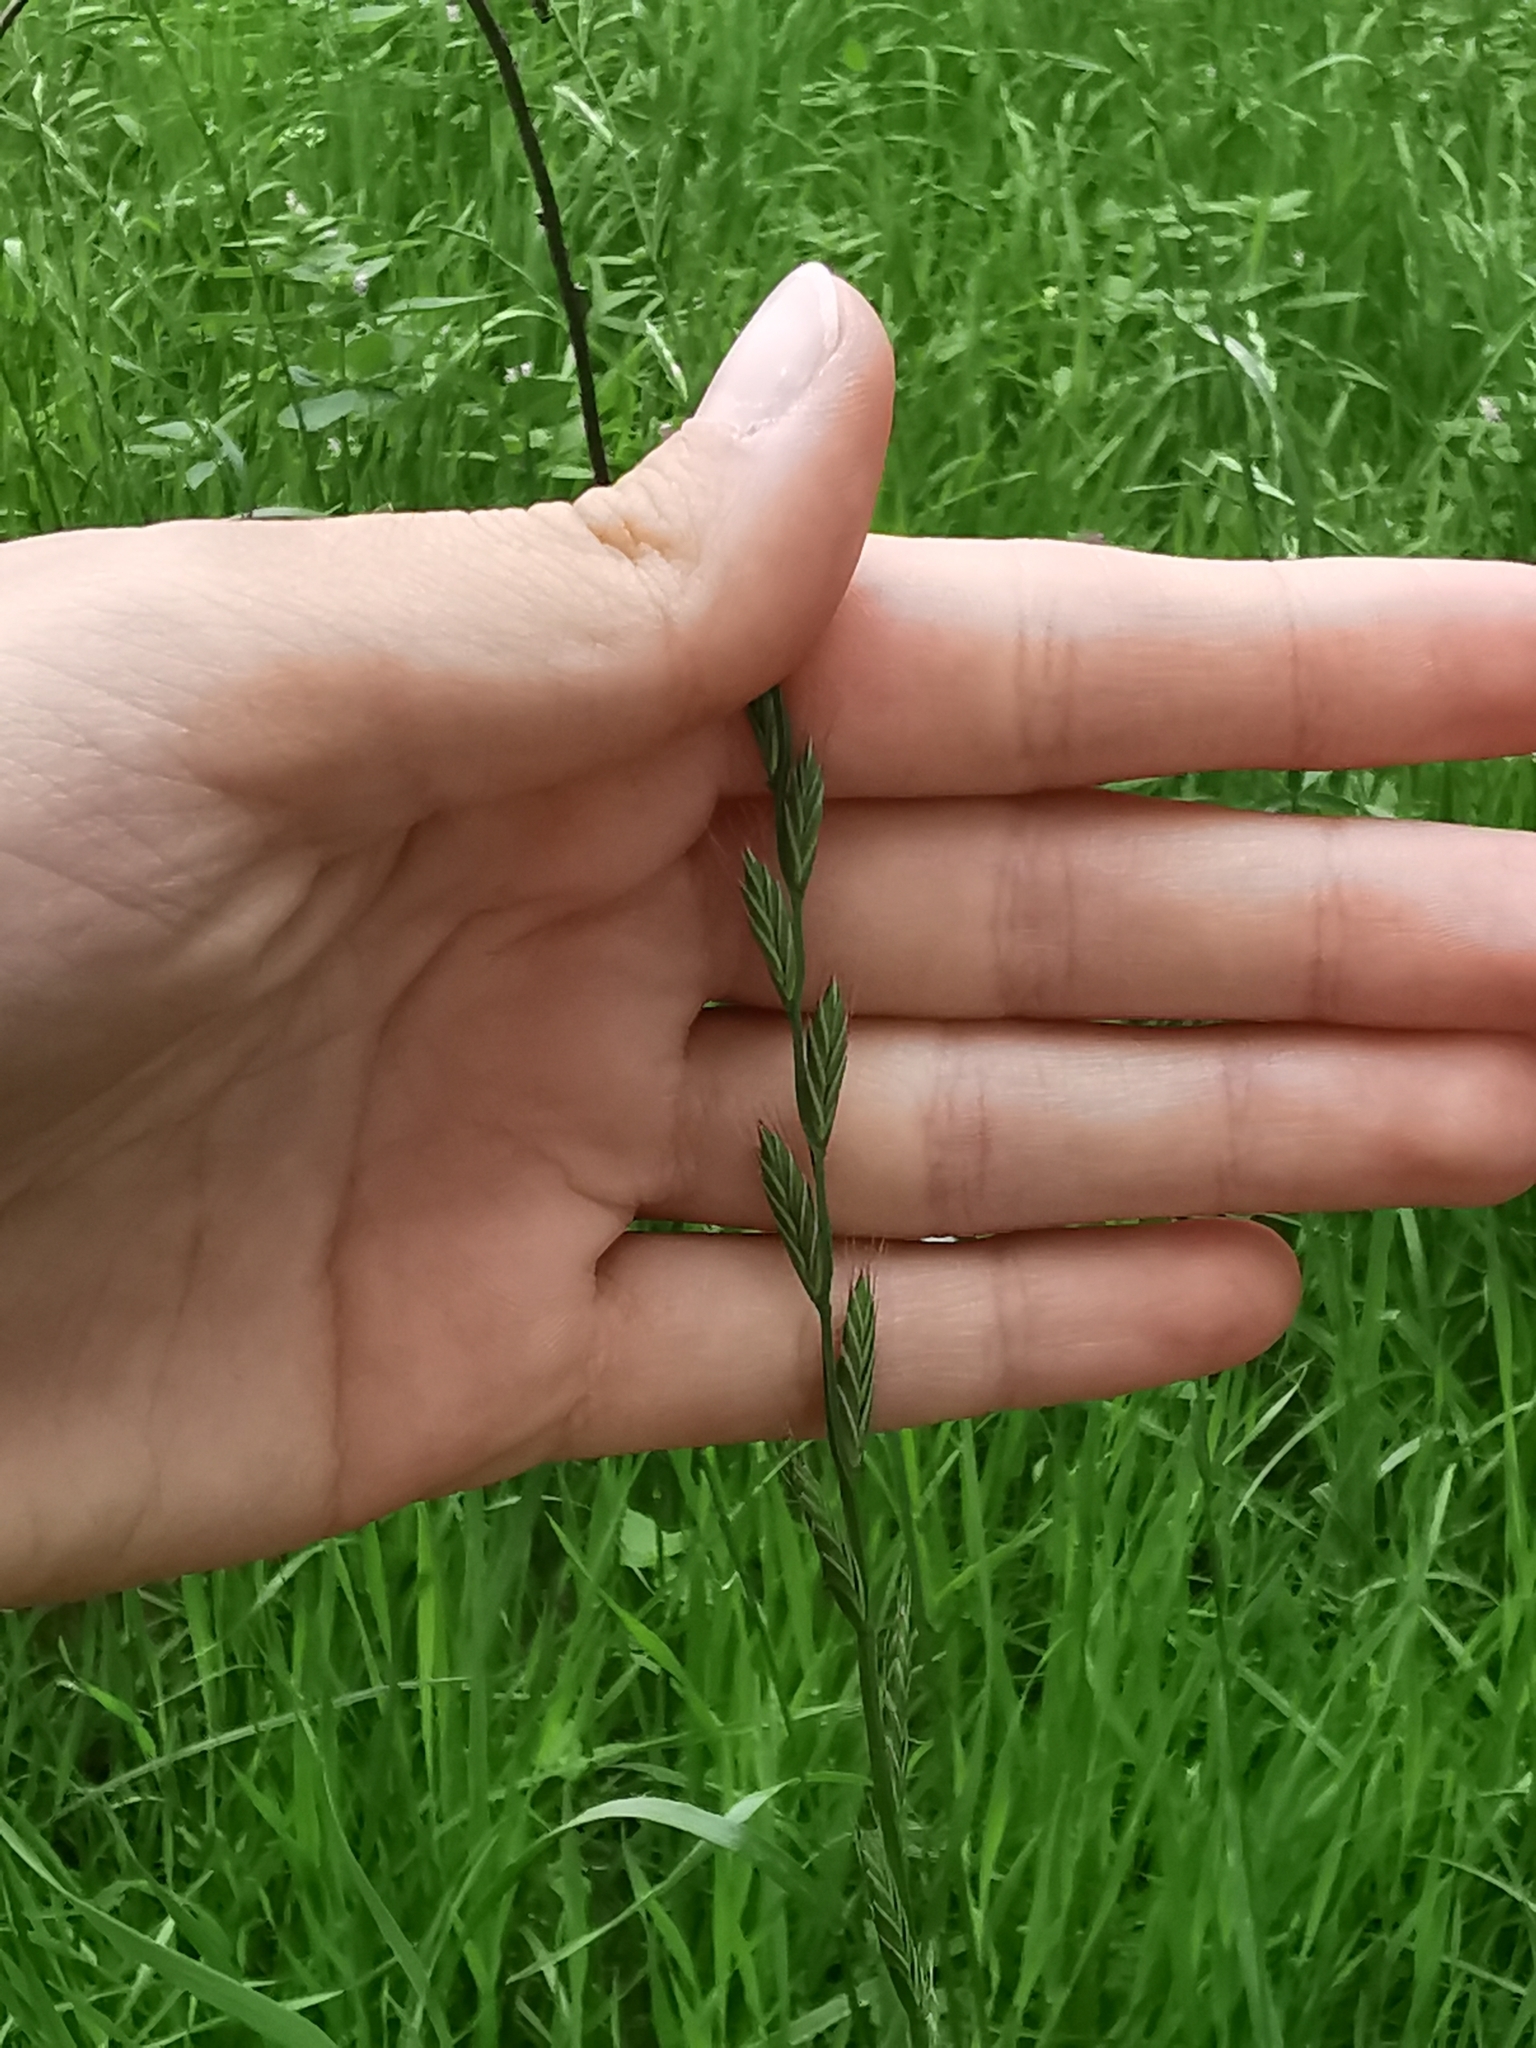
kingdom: Plantae
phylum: Tracheophyta
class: Liliopsida
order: Poales
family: Poaceae
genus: Lolium
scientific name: Lolium multiflorum
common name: Annual ryegrass
